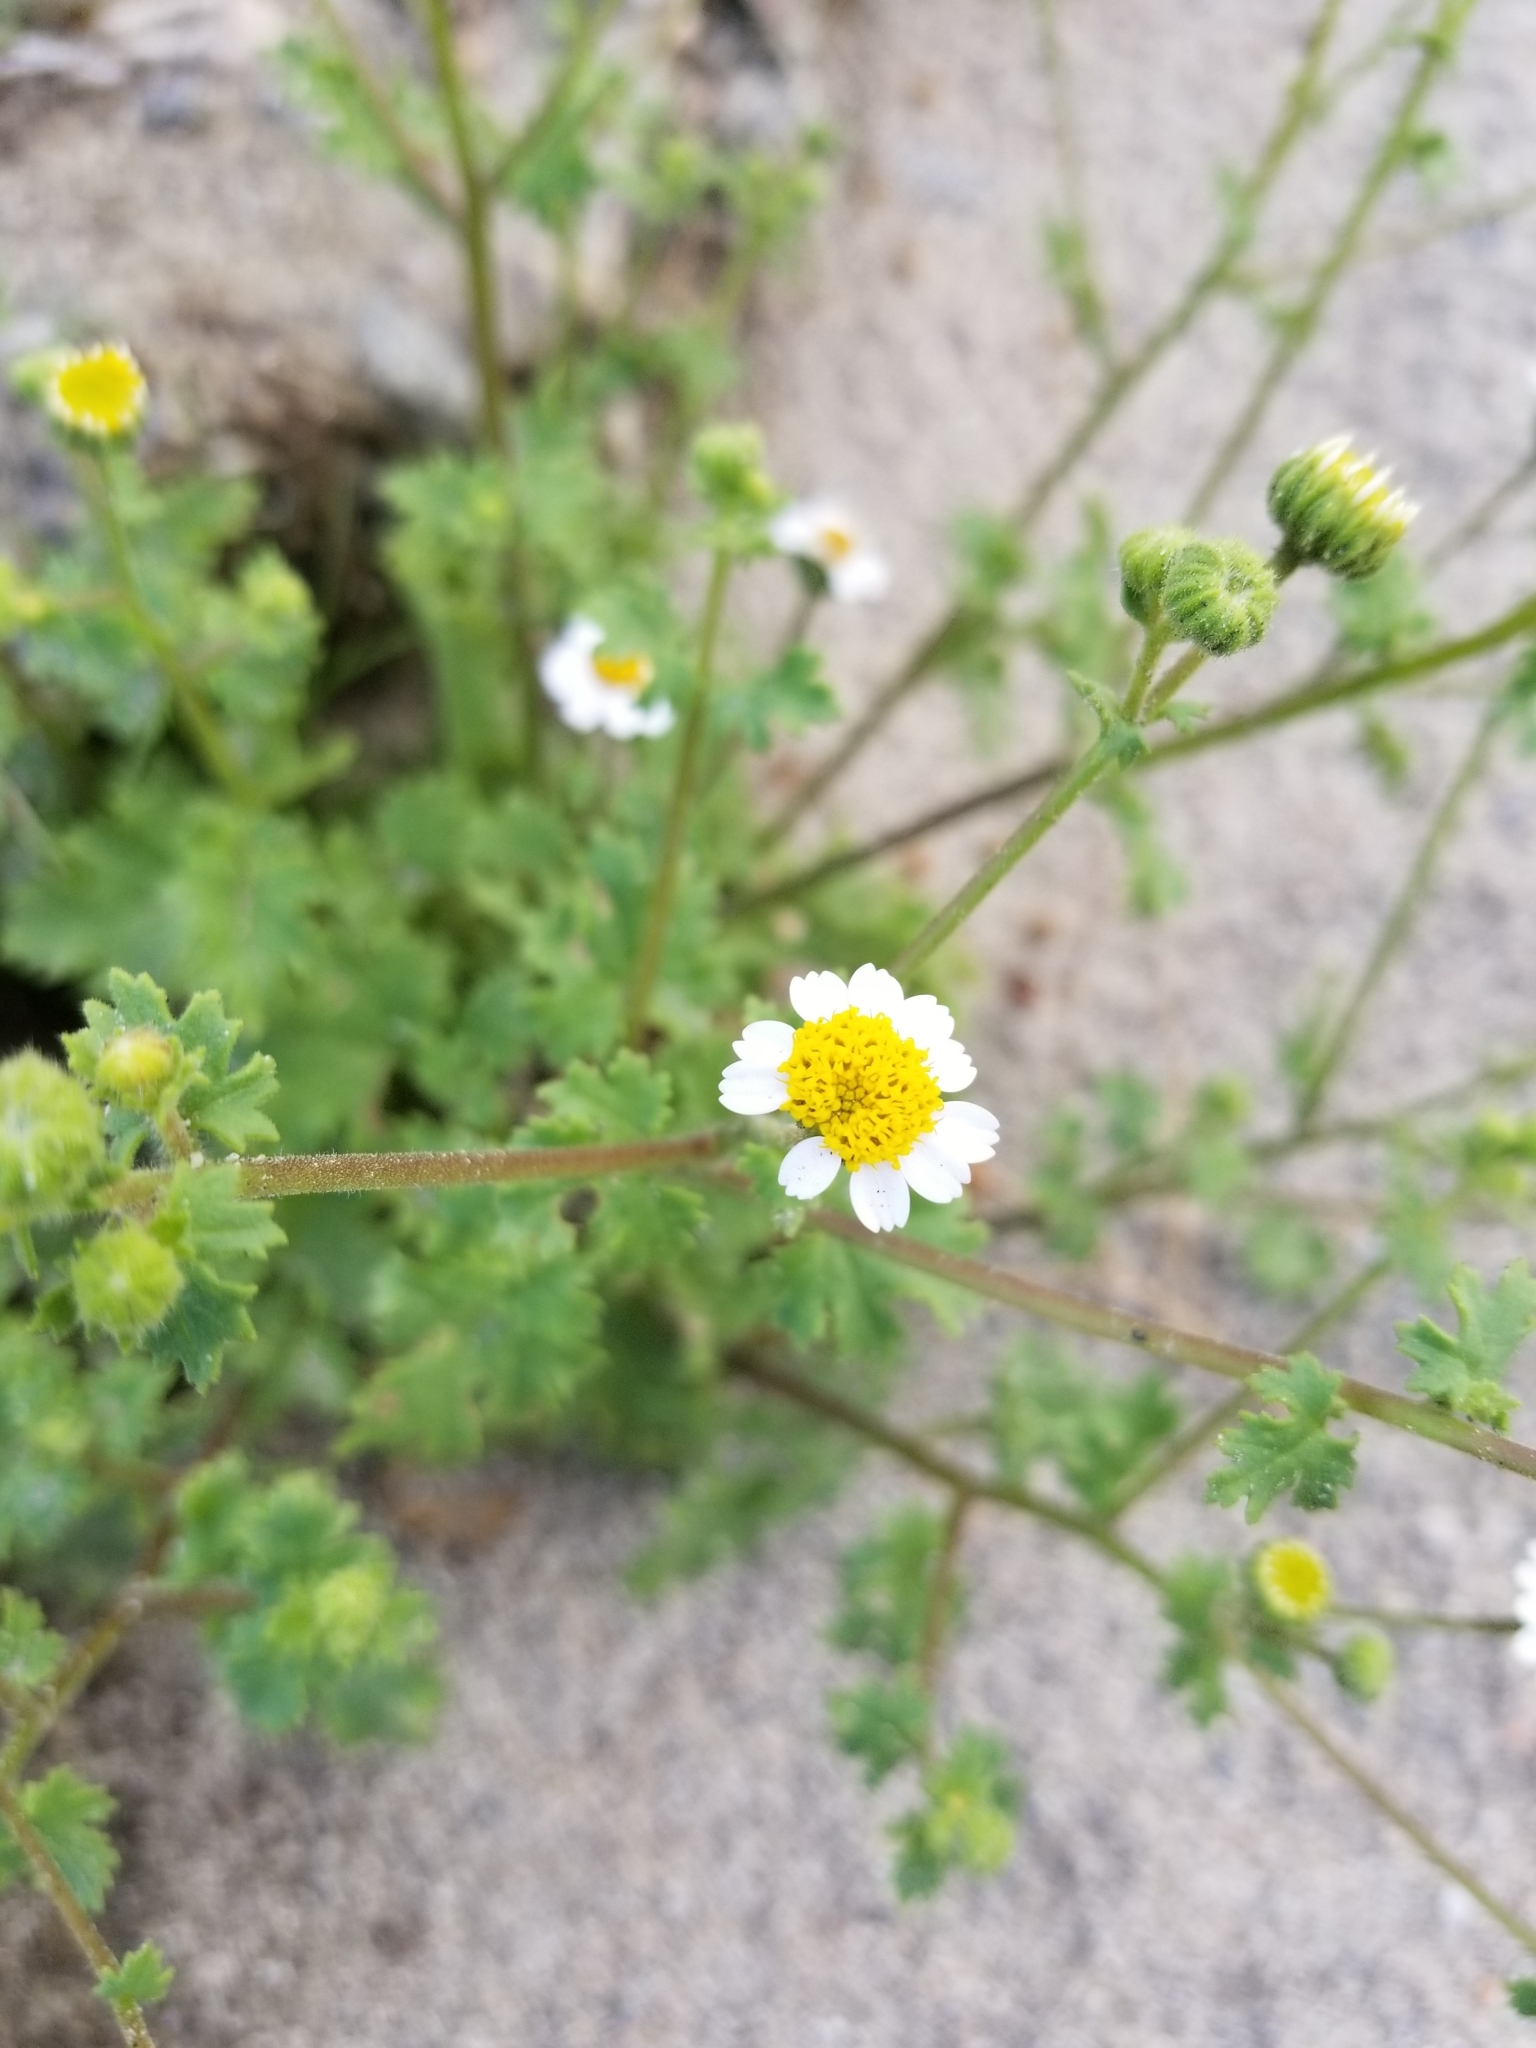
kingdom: Plantae
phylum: Tracheophyta
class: Magnoliopsida
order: Asterales
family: Asteraceae
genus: Laphamia
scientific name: Laphamia emoryi
